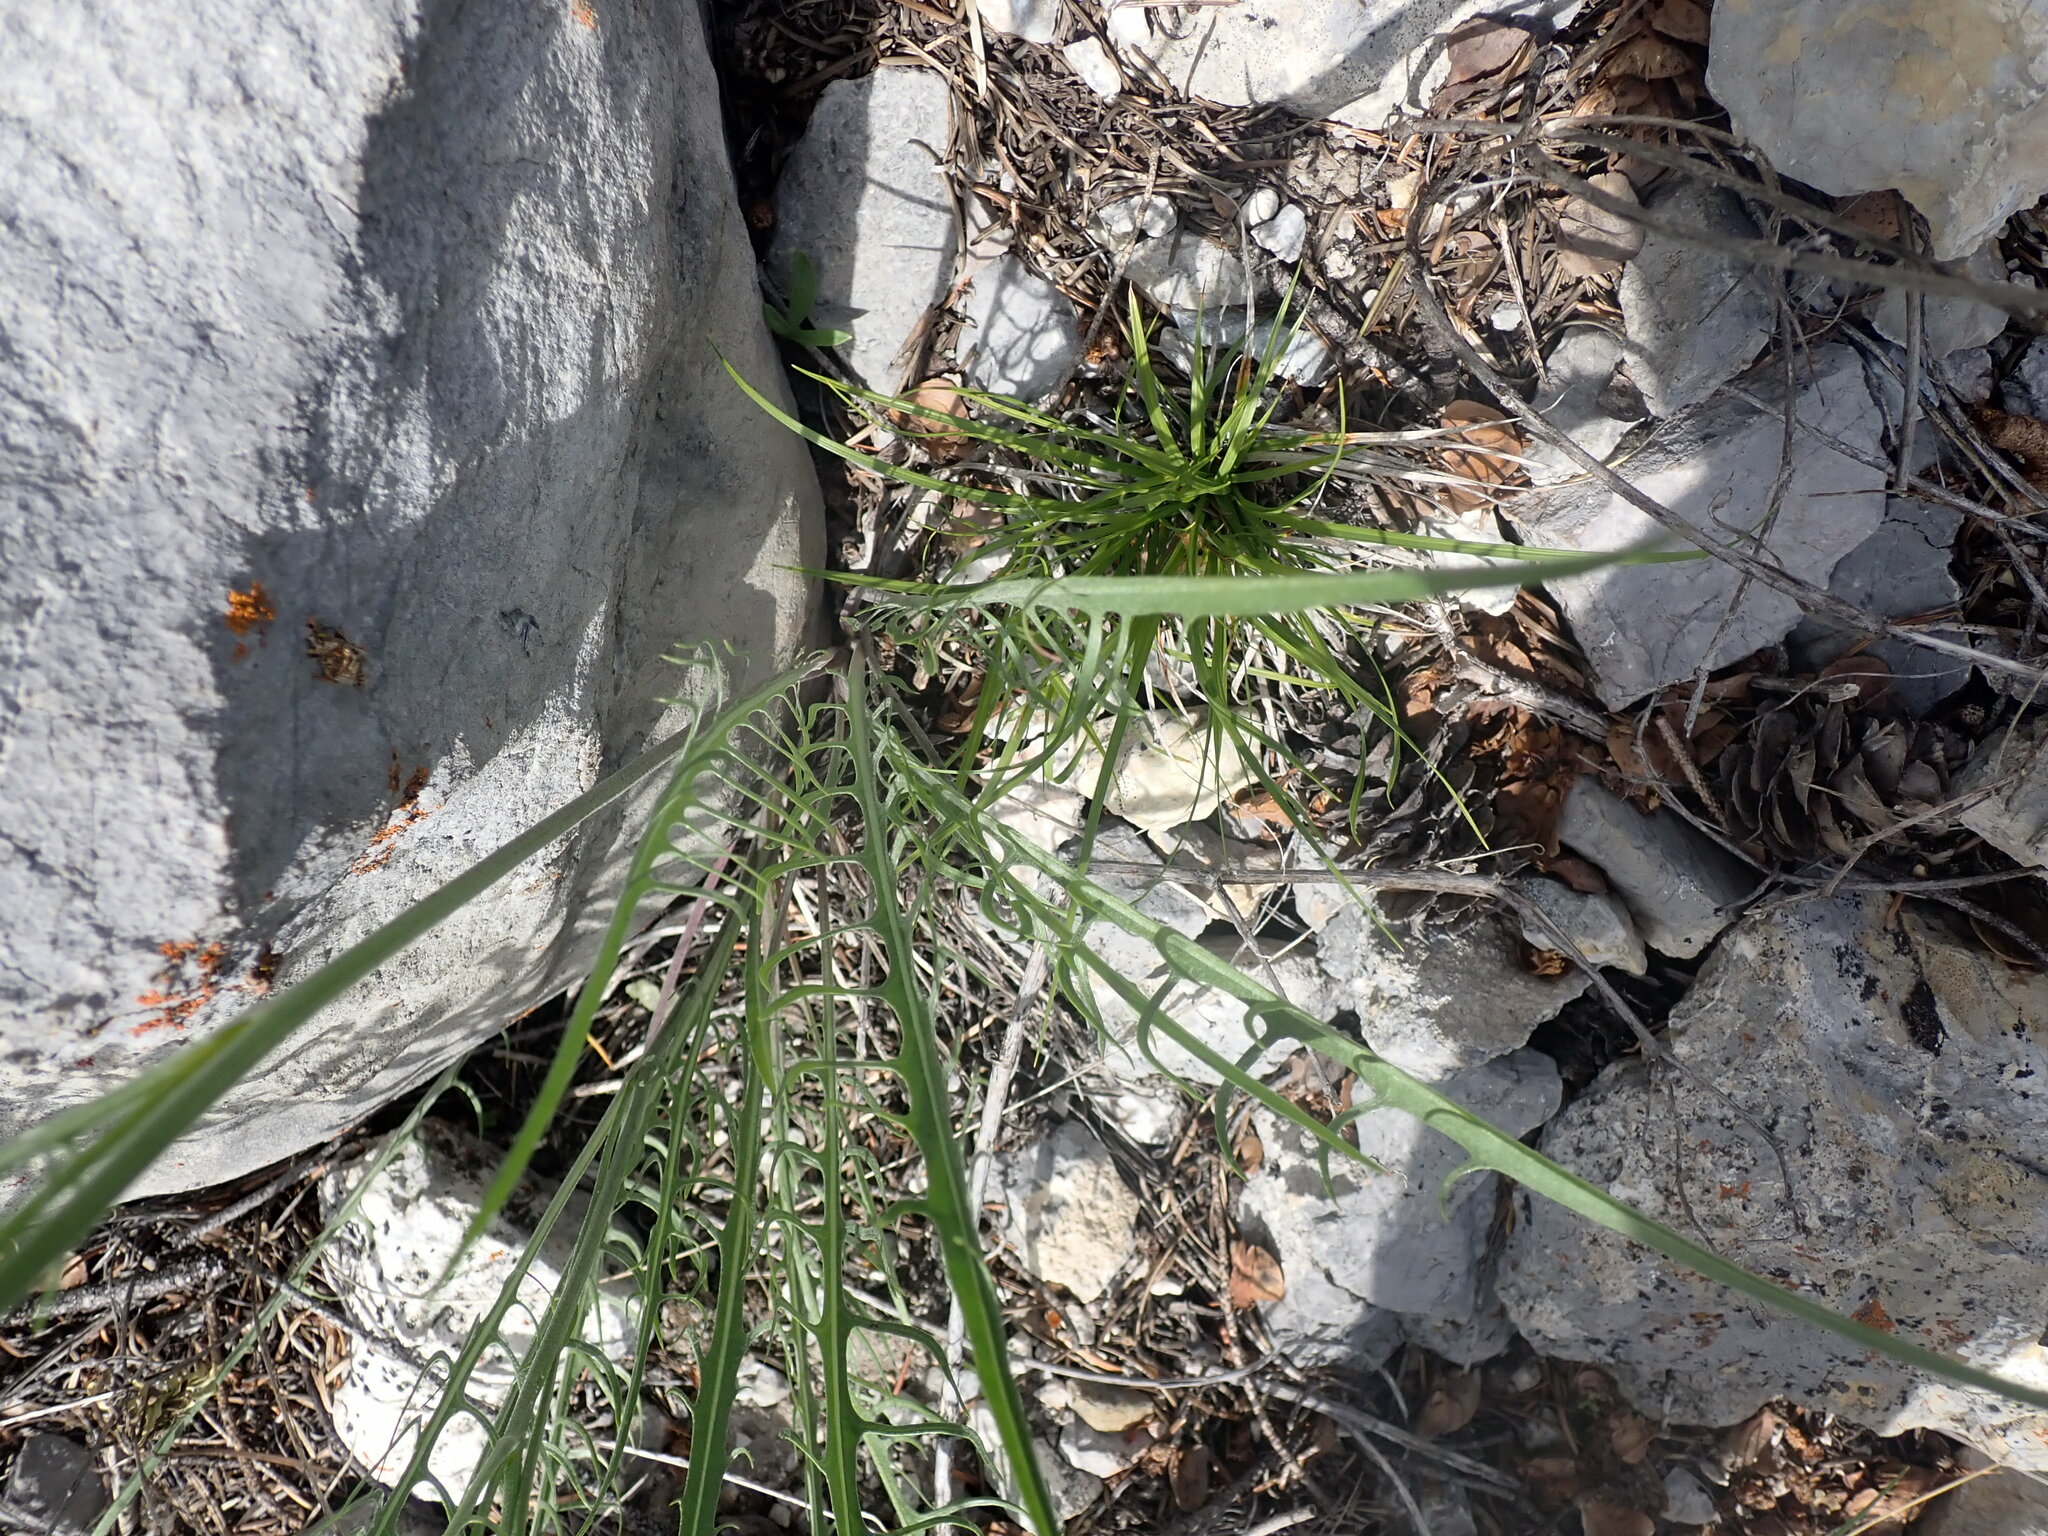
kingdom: Plantae
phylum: Tracheophyta
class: Magnoliopsida
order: Asterales
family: Asteraceae
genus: Crepis
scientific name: Crepis atribarba
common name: Dark hawk's-beard
